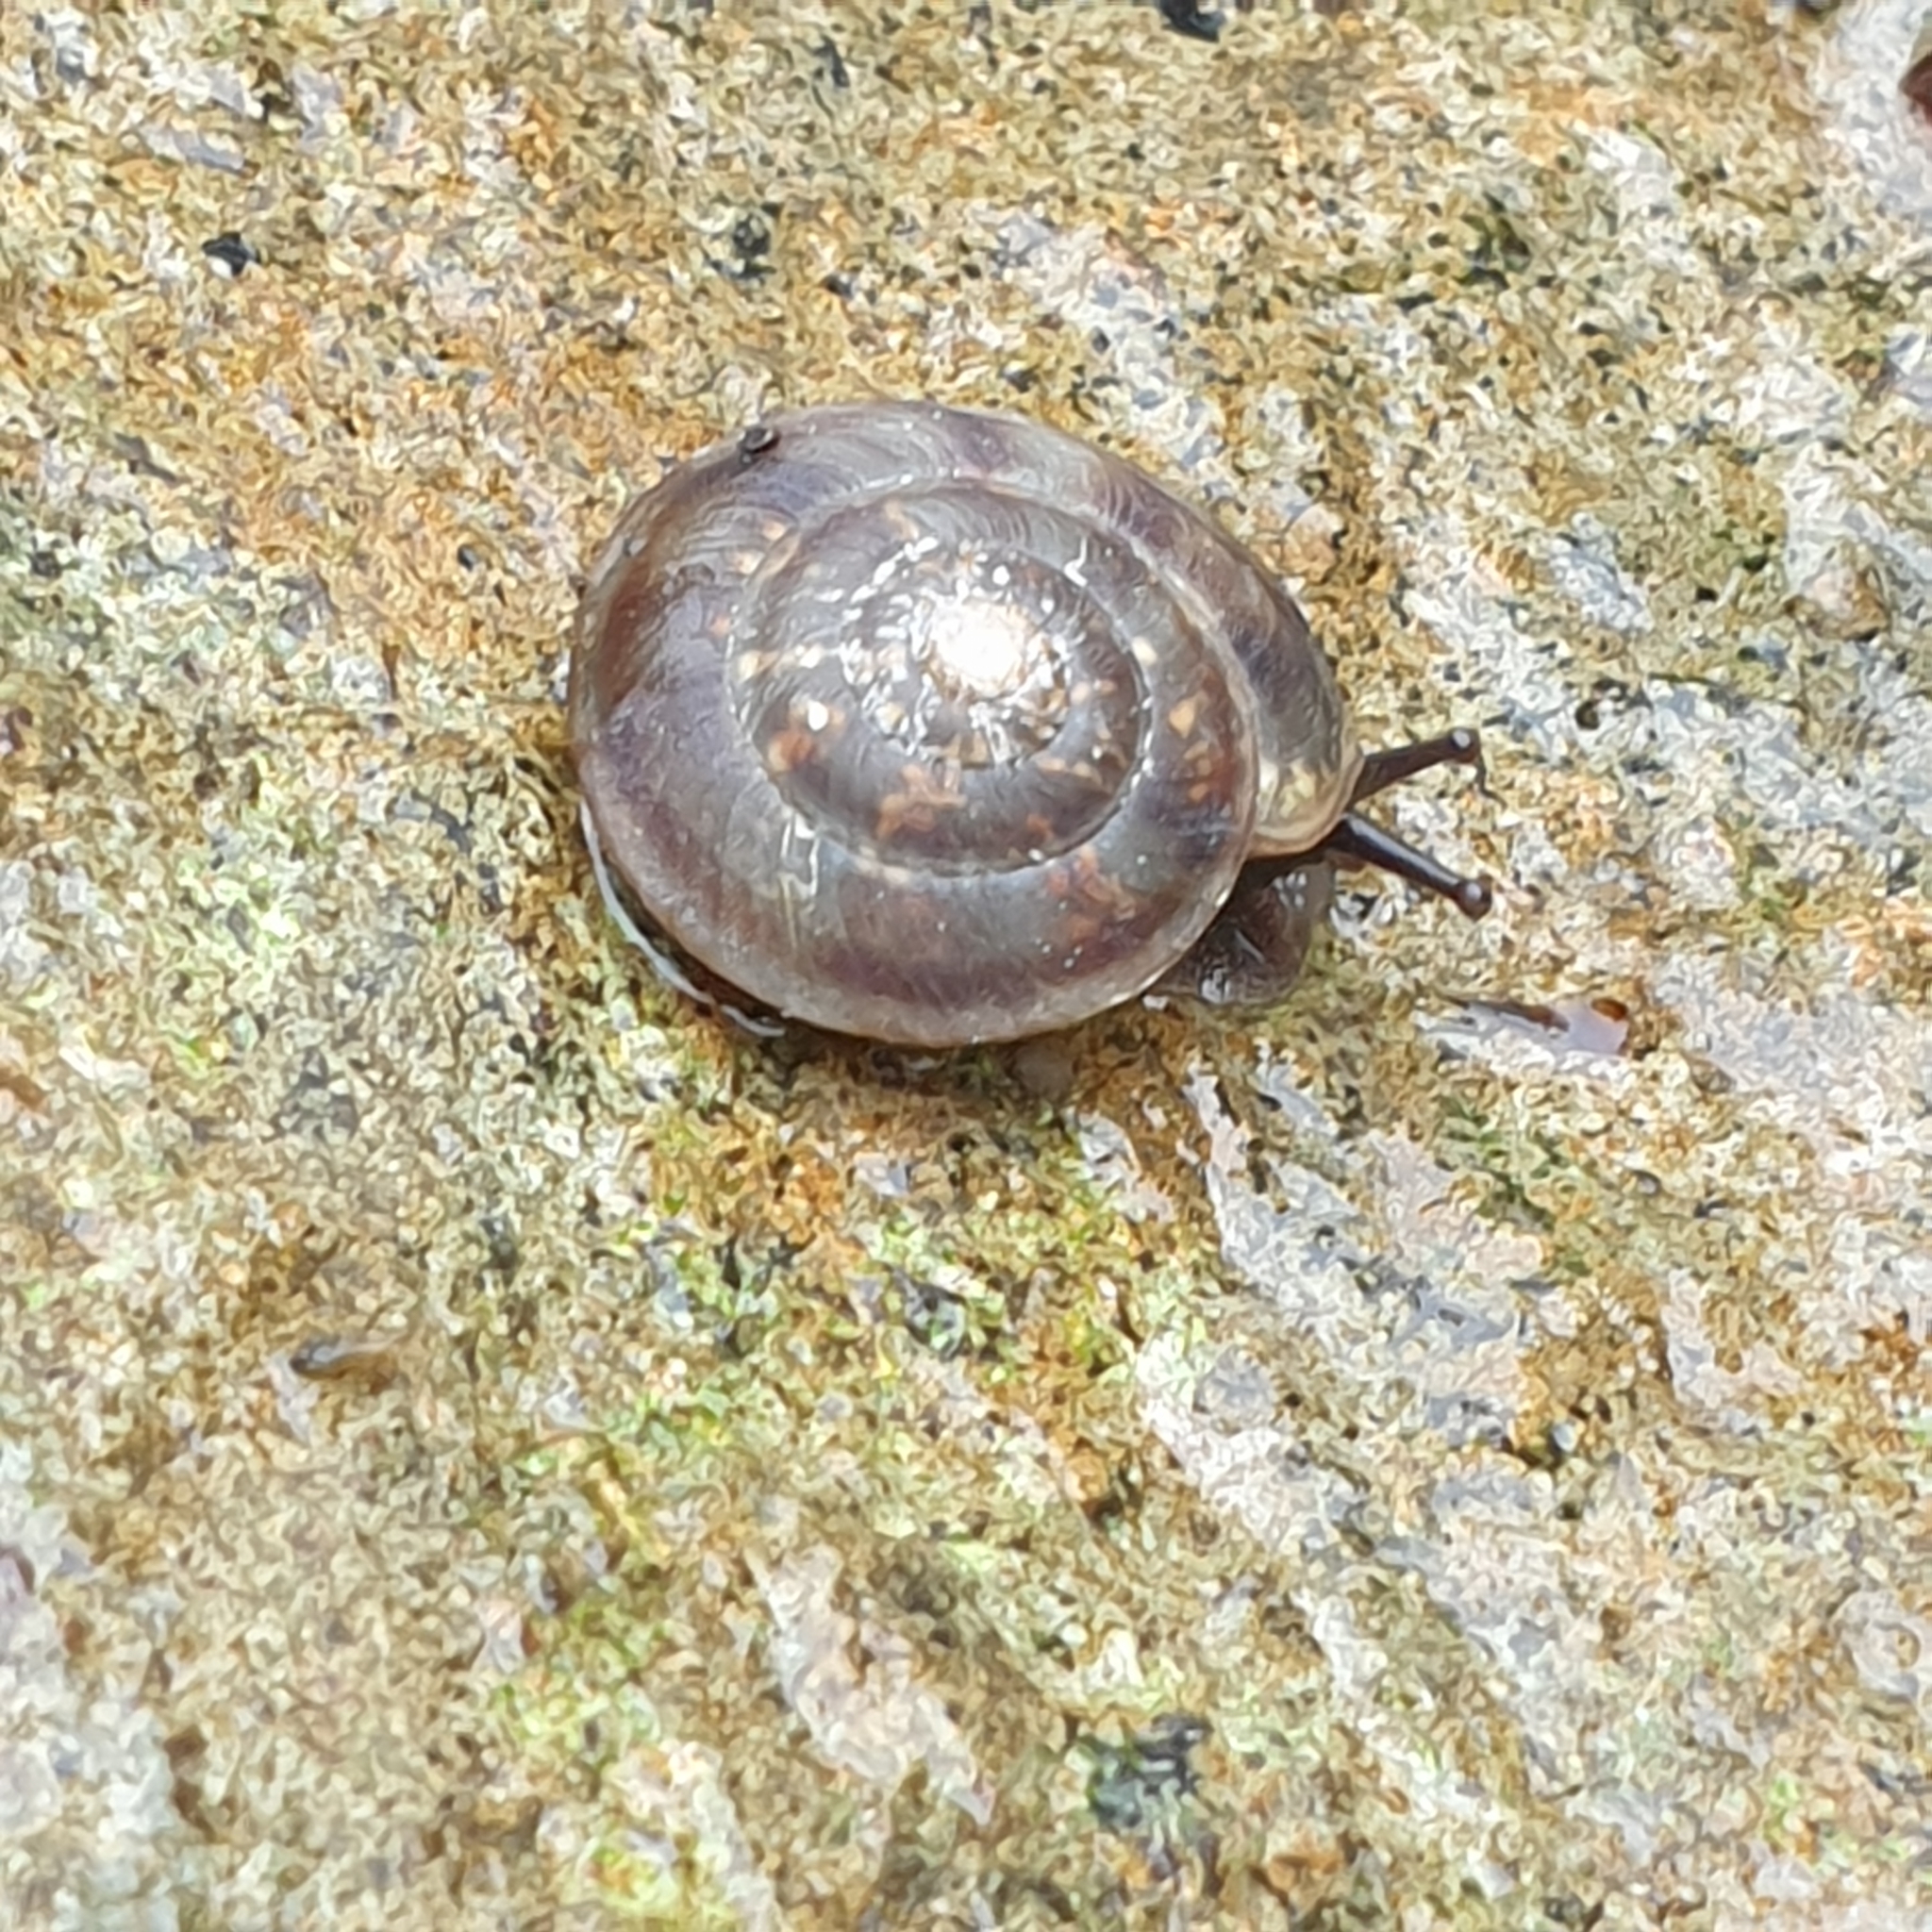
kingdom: Animalia
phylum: Mollusca
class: Gastropoda
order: Stylommatophora
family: Helicidae
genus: Helicigona
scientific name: Helicigona lapicida
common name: Lapidary snail
